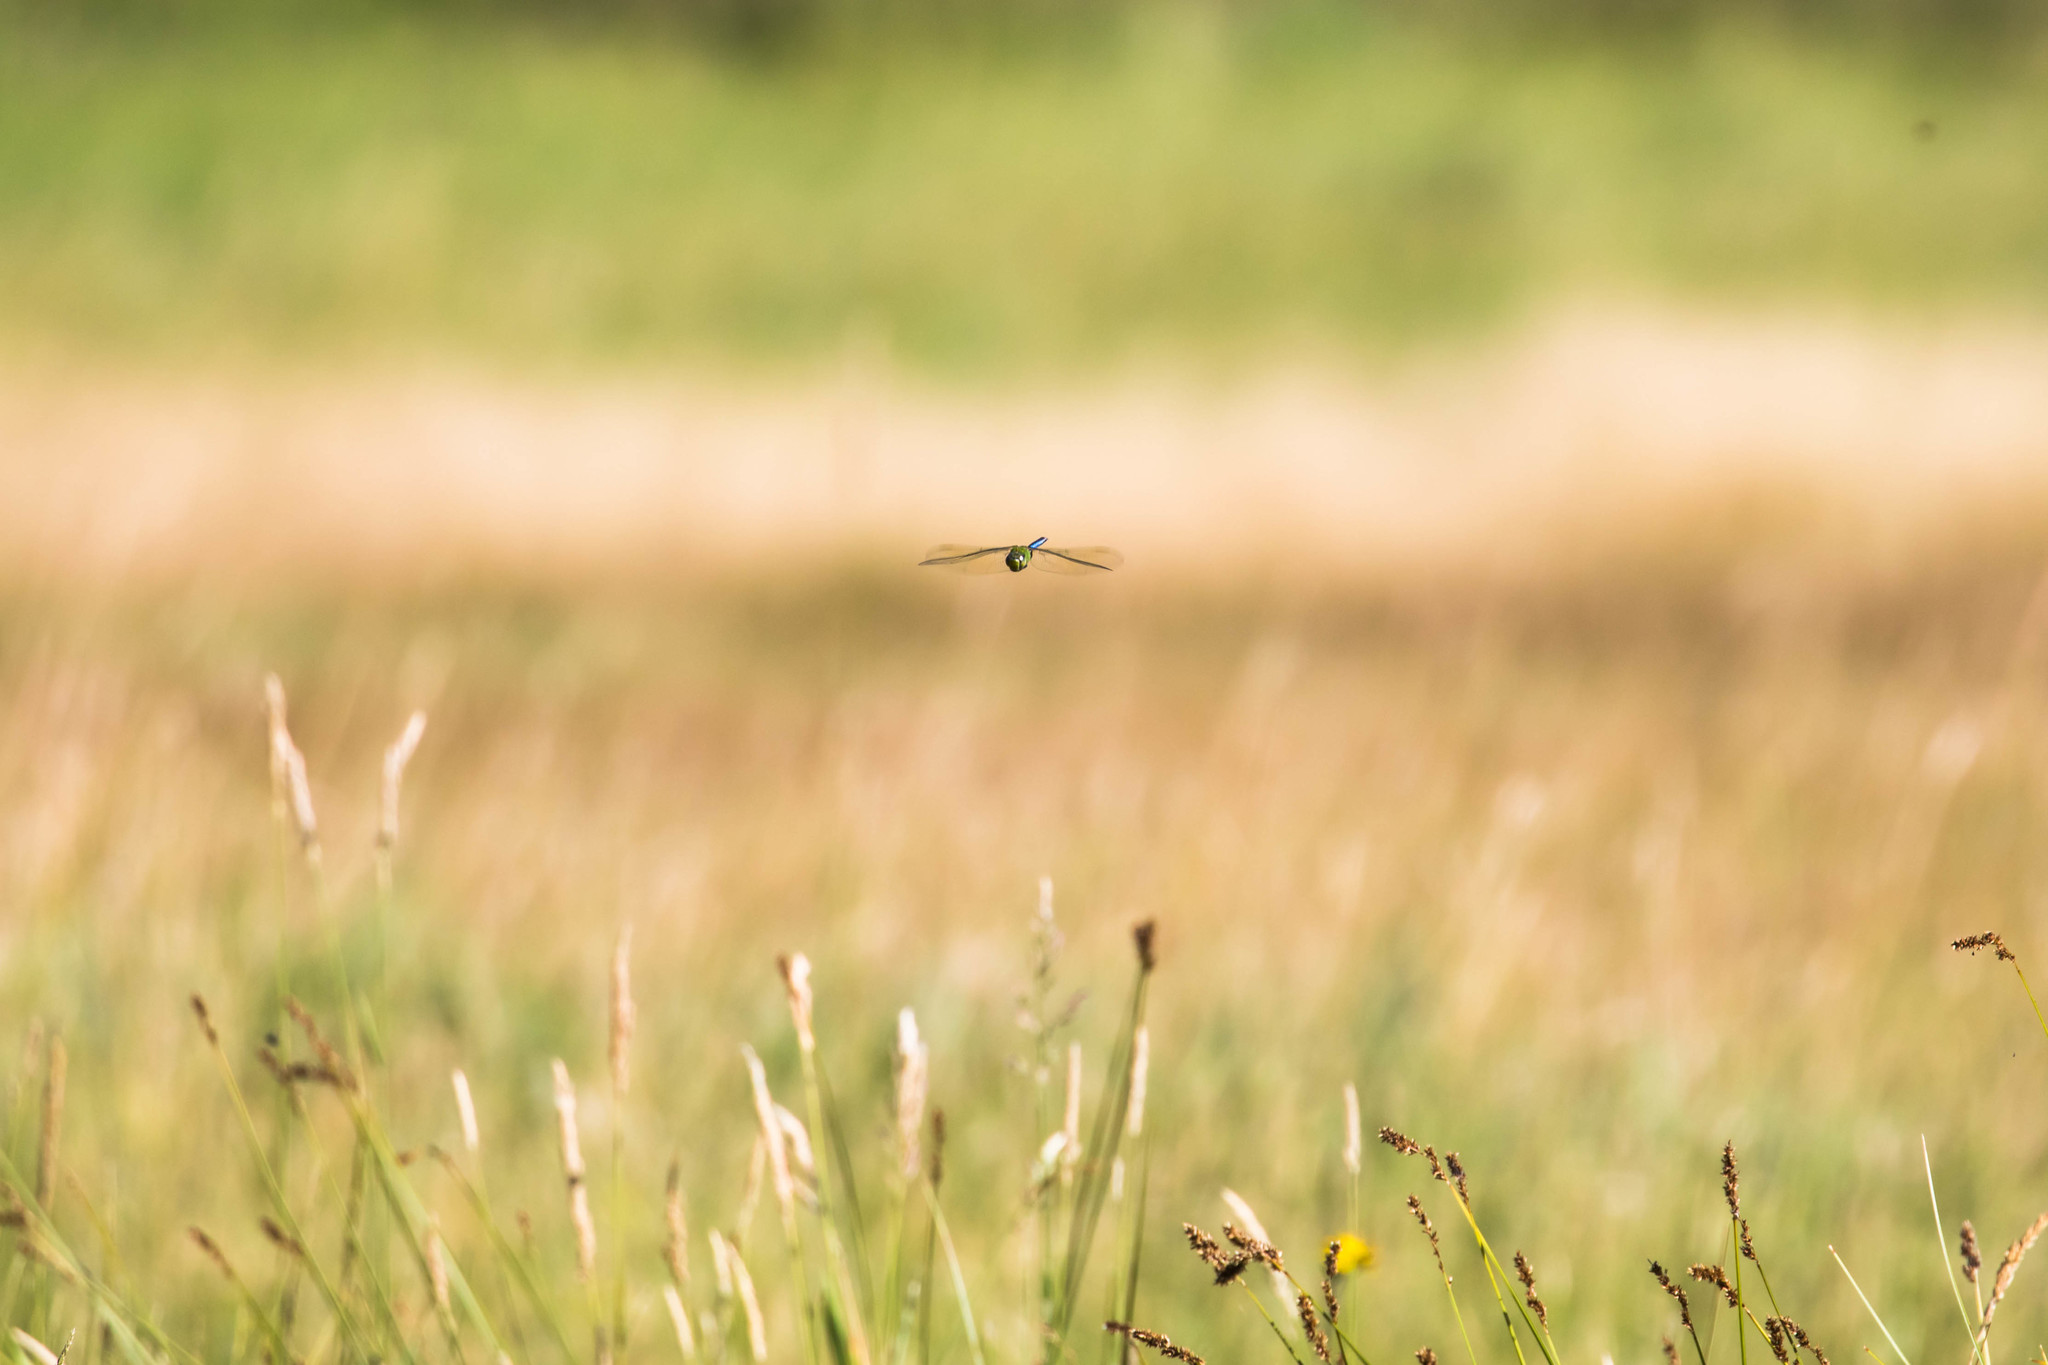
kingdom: Animalia
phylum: Arthropoda
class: Insecta
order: Odonata
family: Aeshnidae
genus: Anax
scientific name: Anax junius
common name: Common green darner
